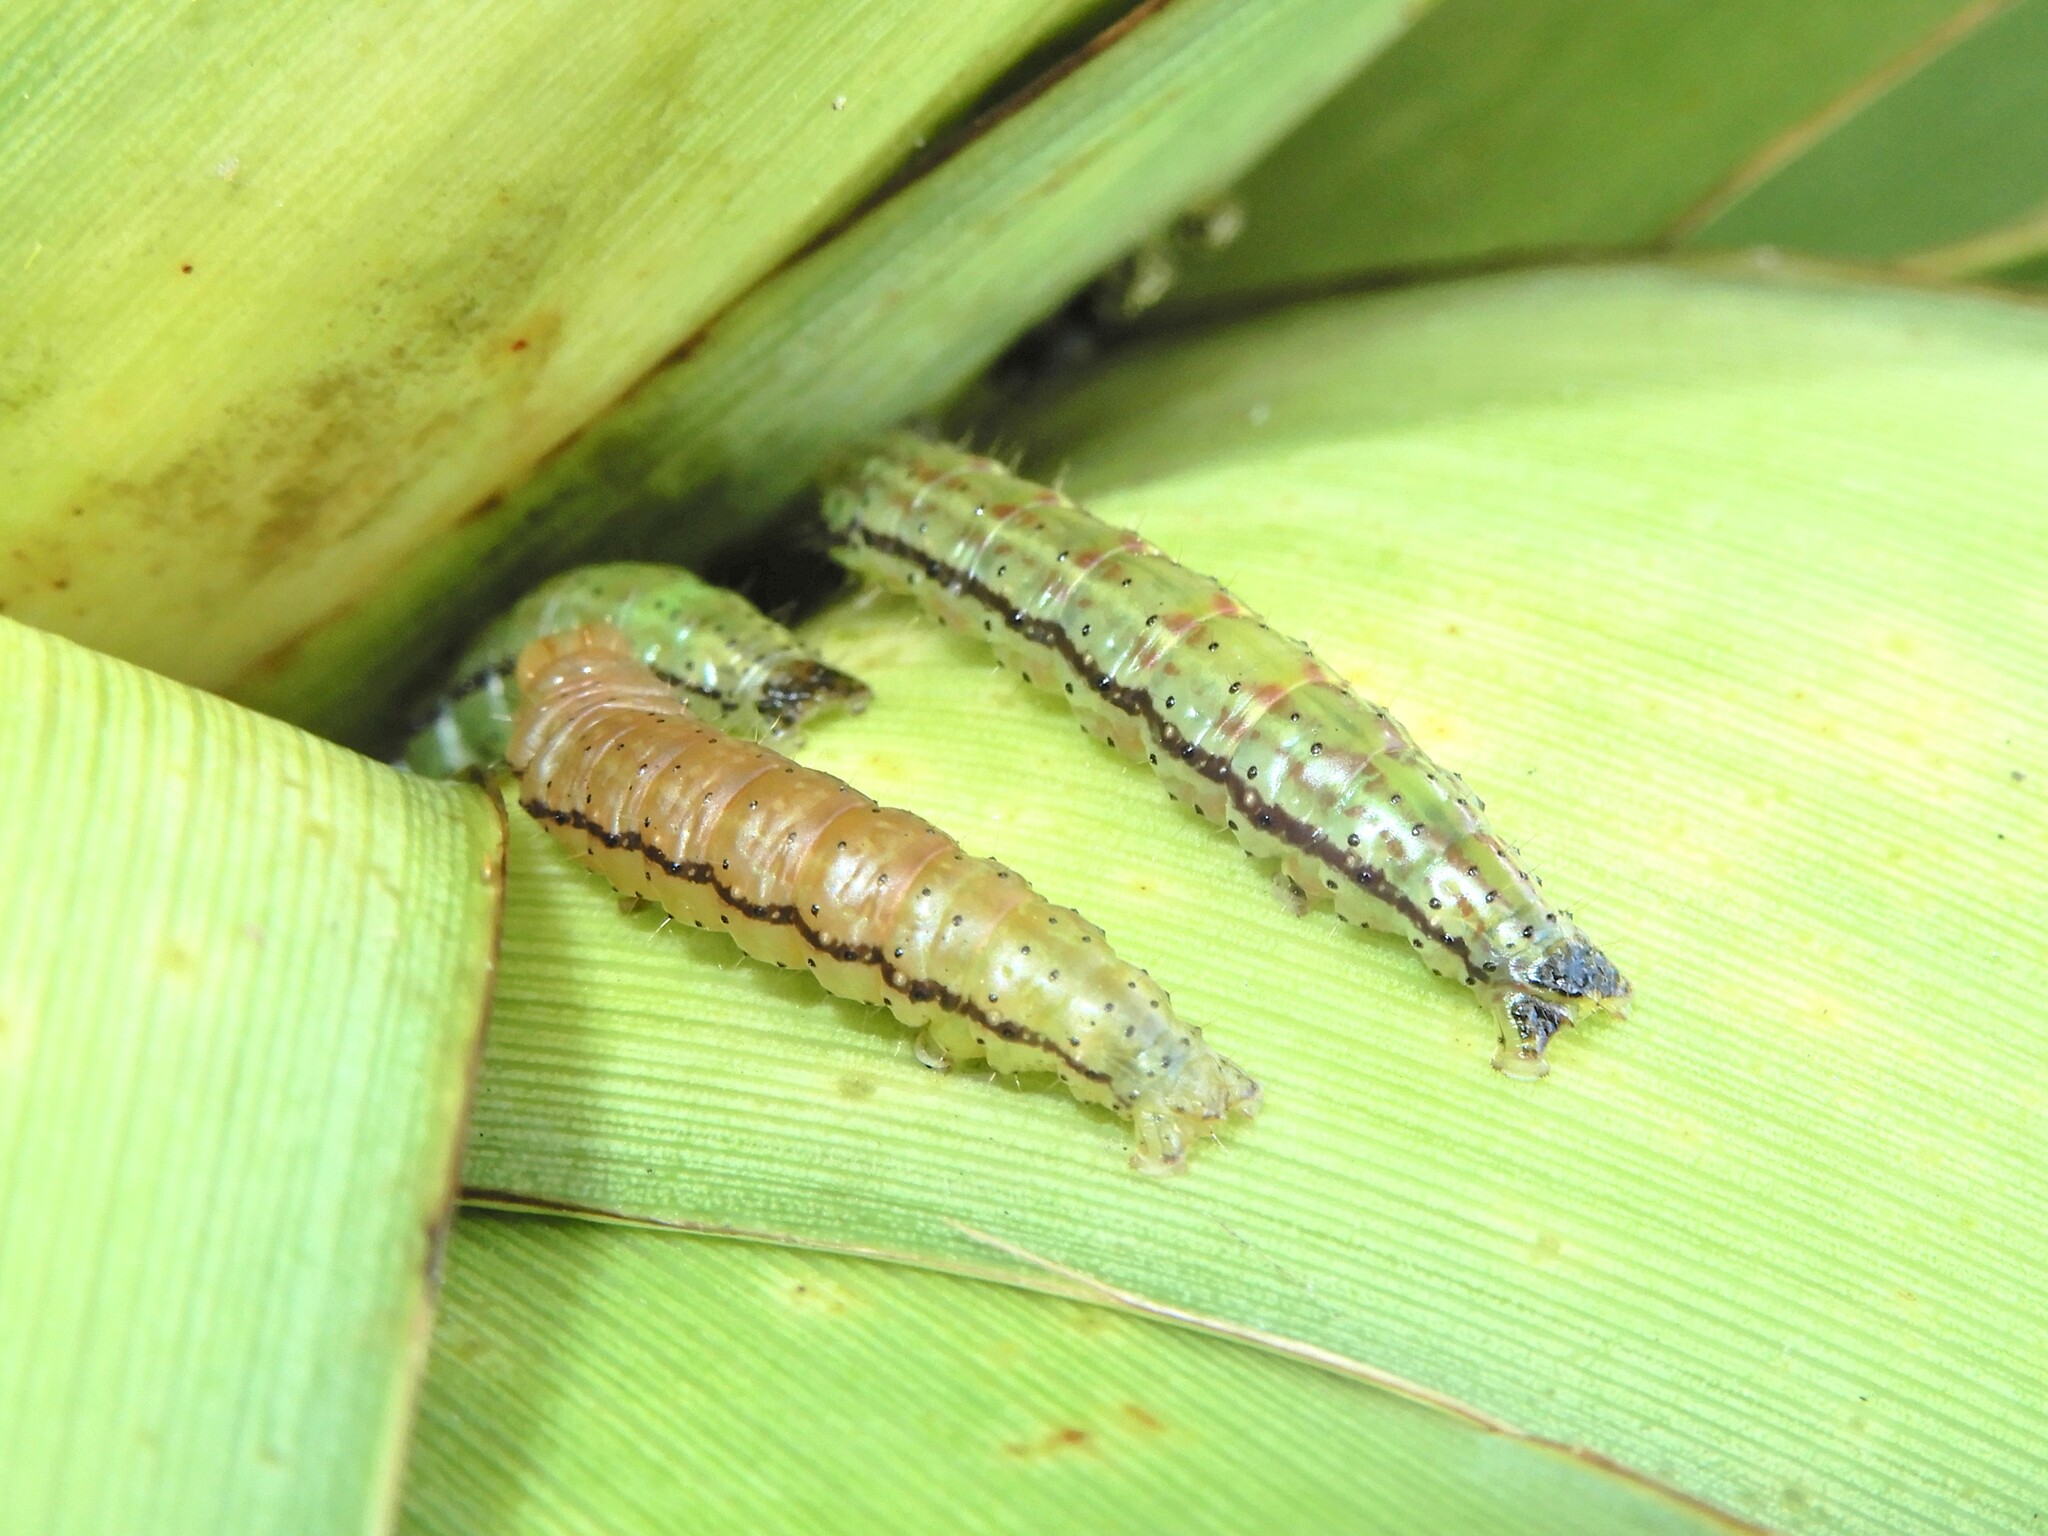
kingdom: Animalia
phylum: Arthropoda
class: Insecta
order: Lepidoptera
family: Geometridae
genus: Epiphryne
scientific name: Epiphryne verriculata
